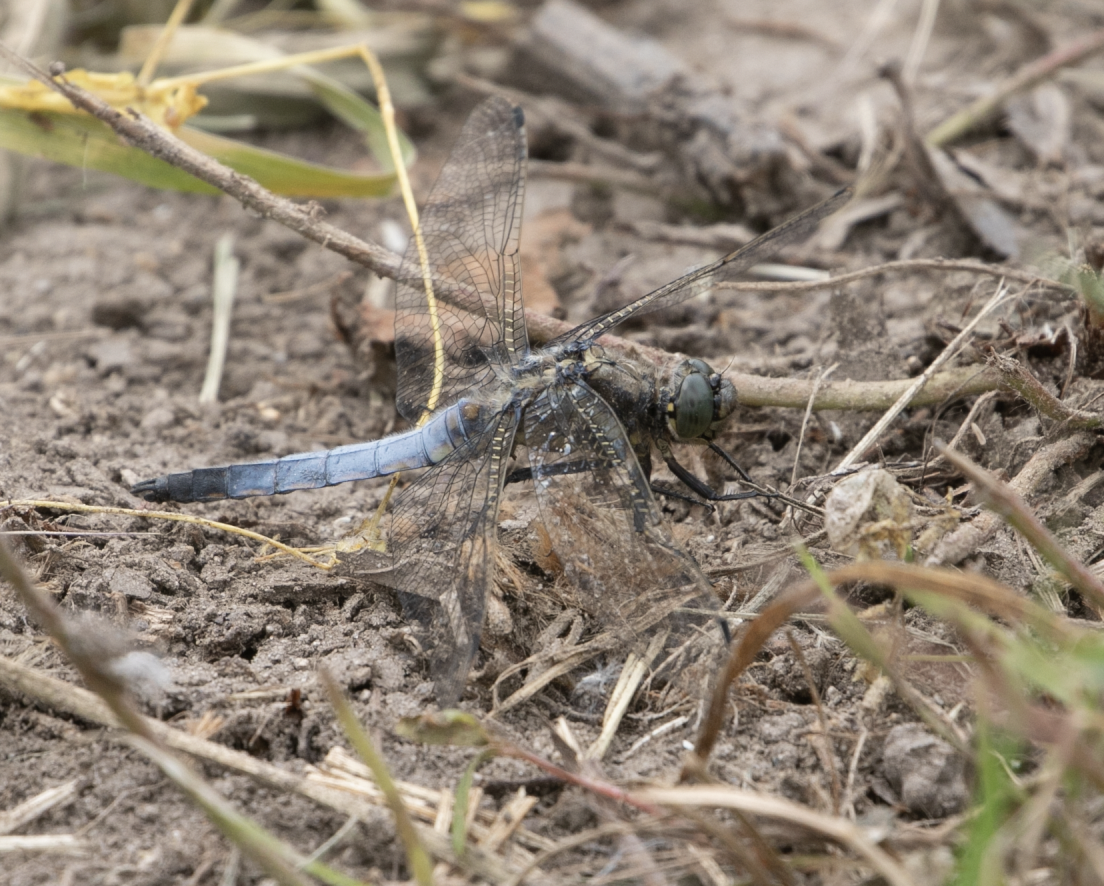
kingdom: Animalia
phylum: Arthropoda
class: Insecta
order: Odonata
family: Libellulidae
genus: Orthetrum
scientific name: Orthetrum cancellatum
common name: Black-tailed skimmer
